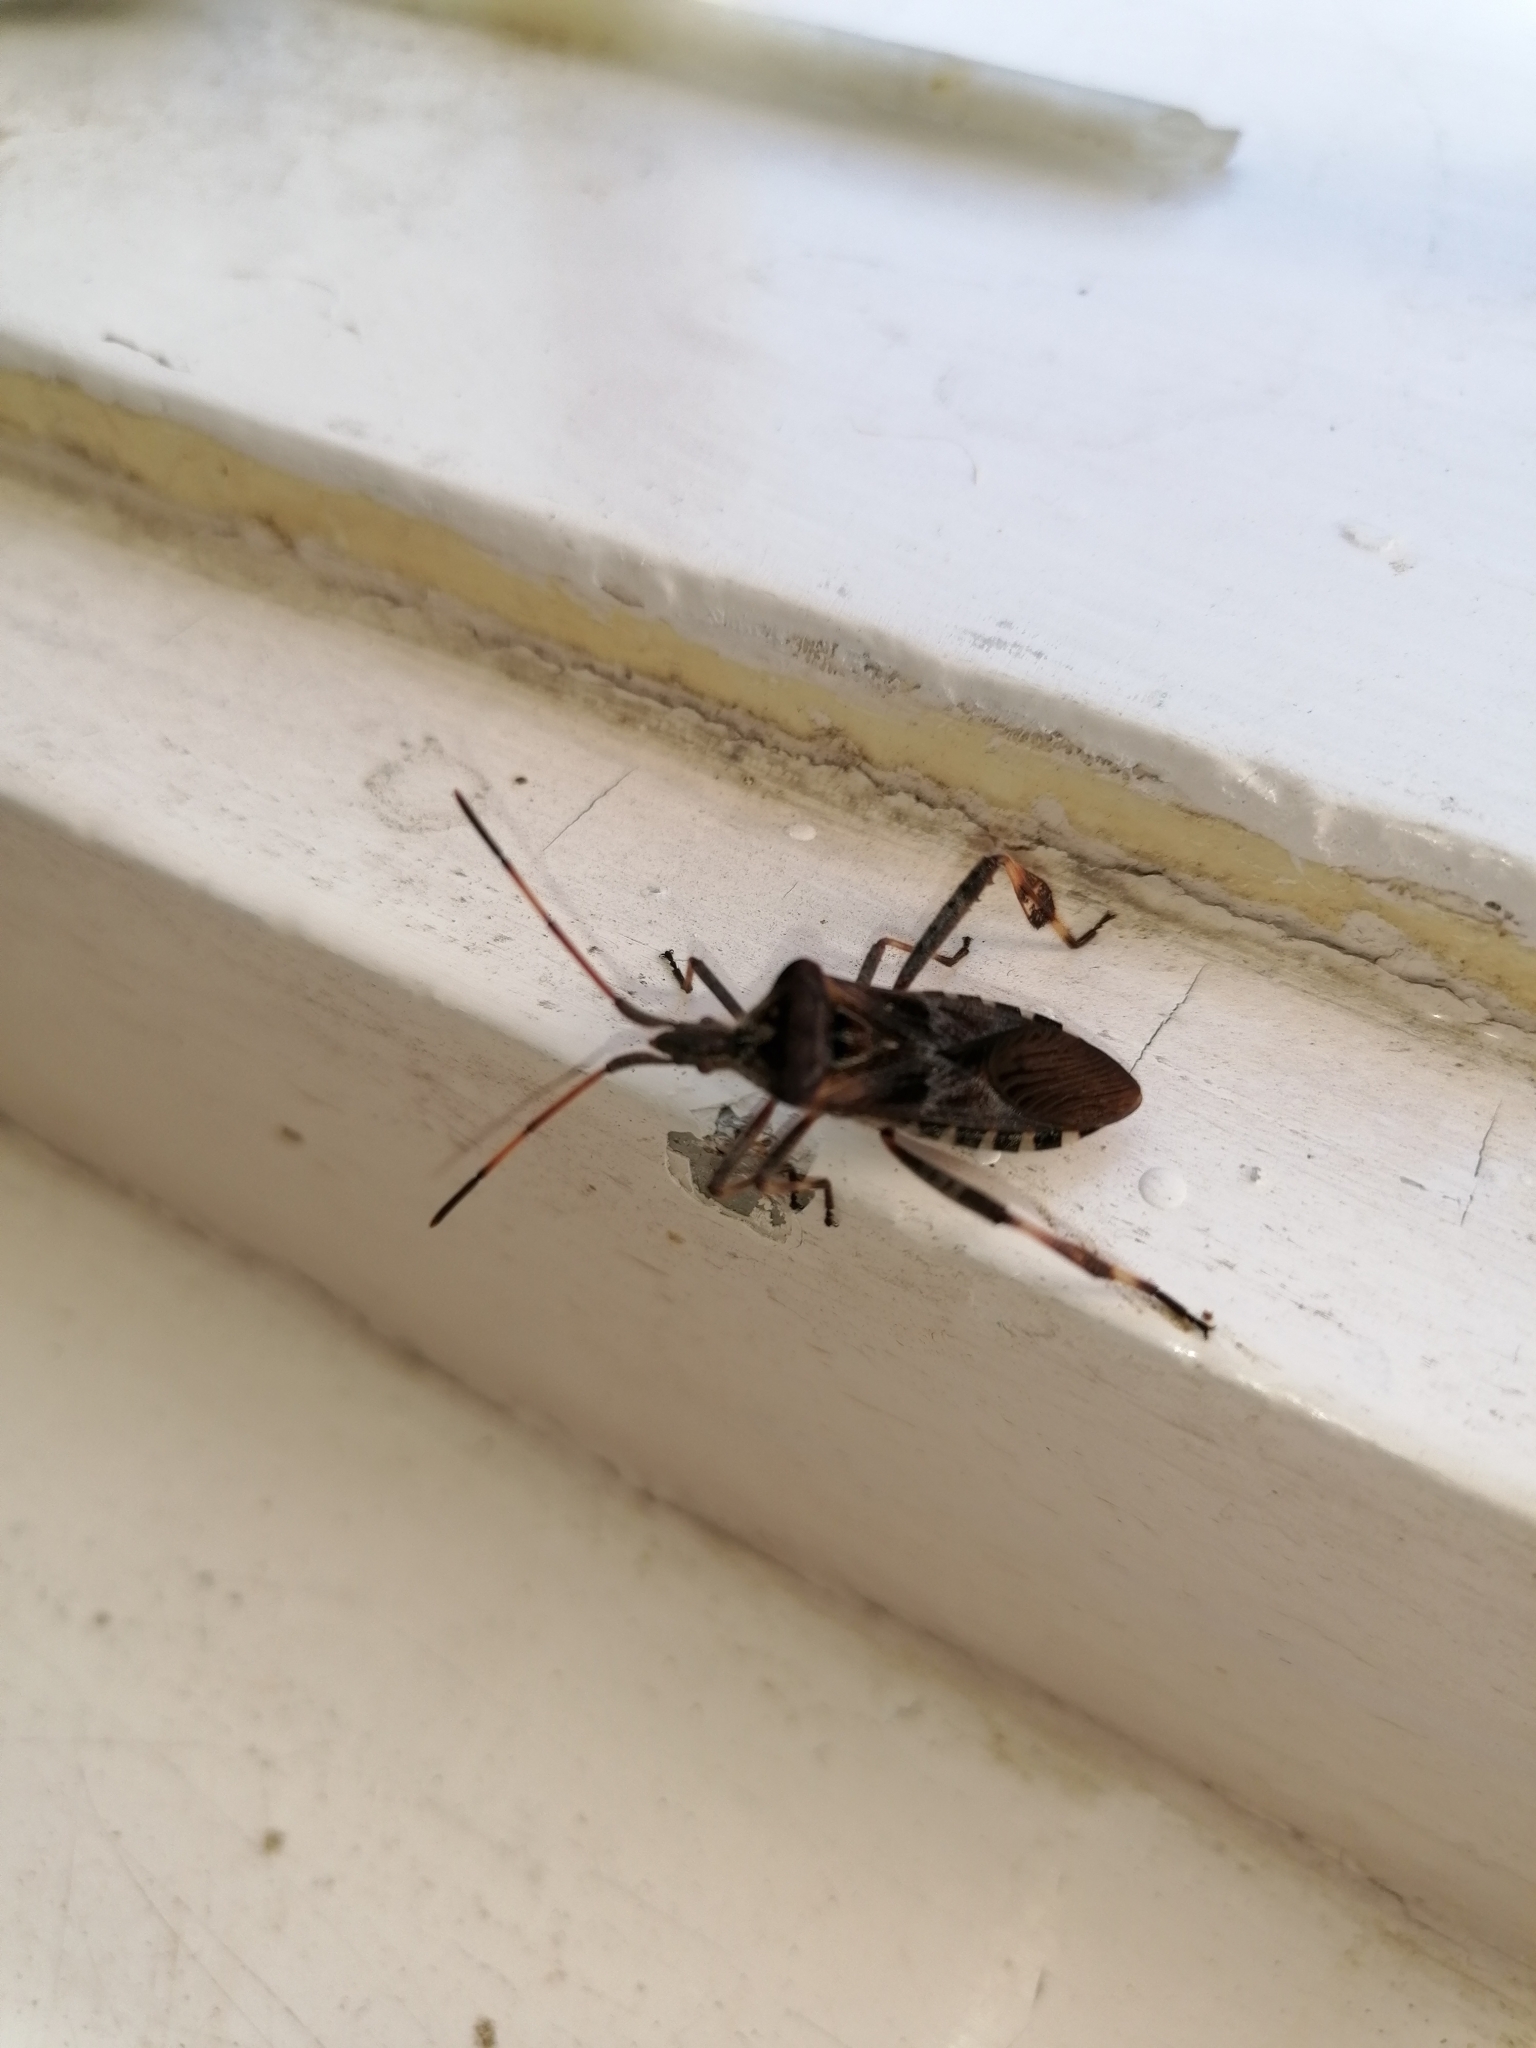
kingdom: Animalia
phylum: Arthropoda
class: Insecta
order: Hemiptera
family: Coreidae
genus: Leptoglossus
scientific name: Leptoglossus occidentalis
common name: Western conifer-seed bug
